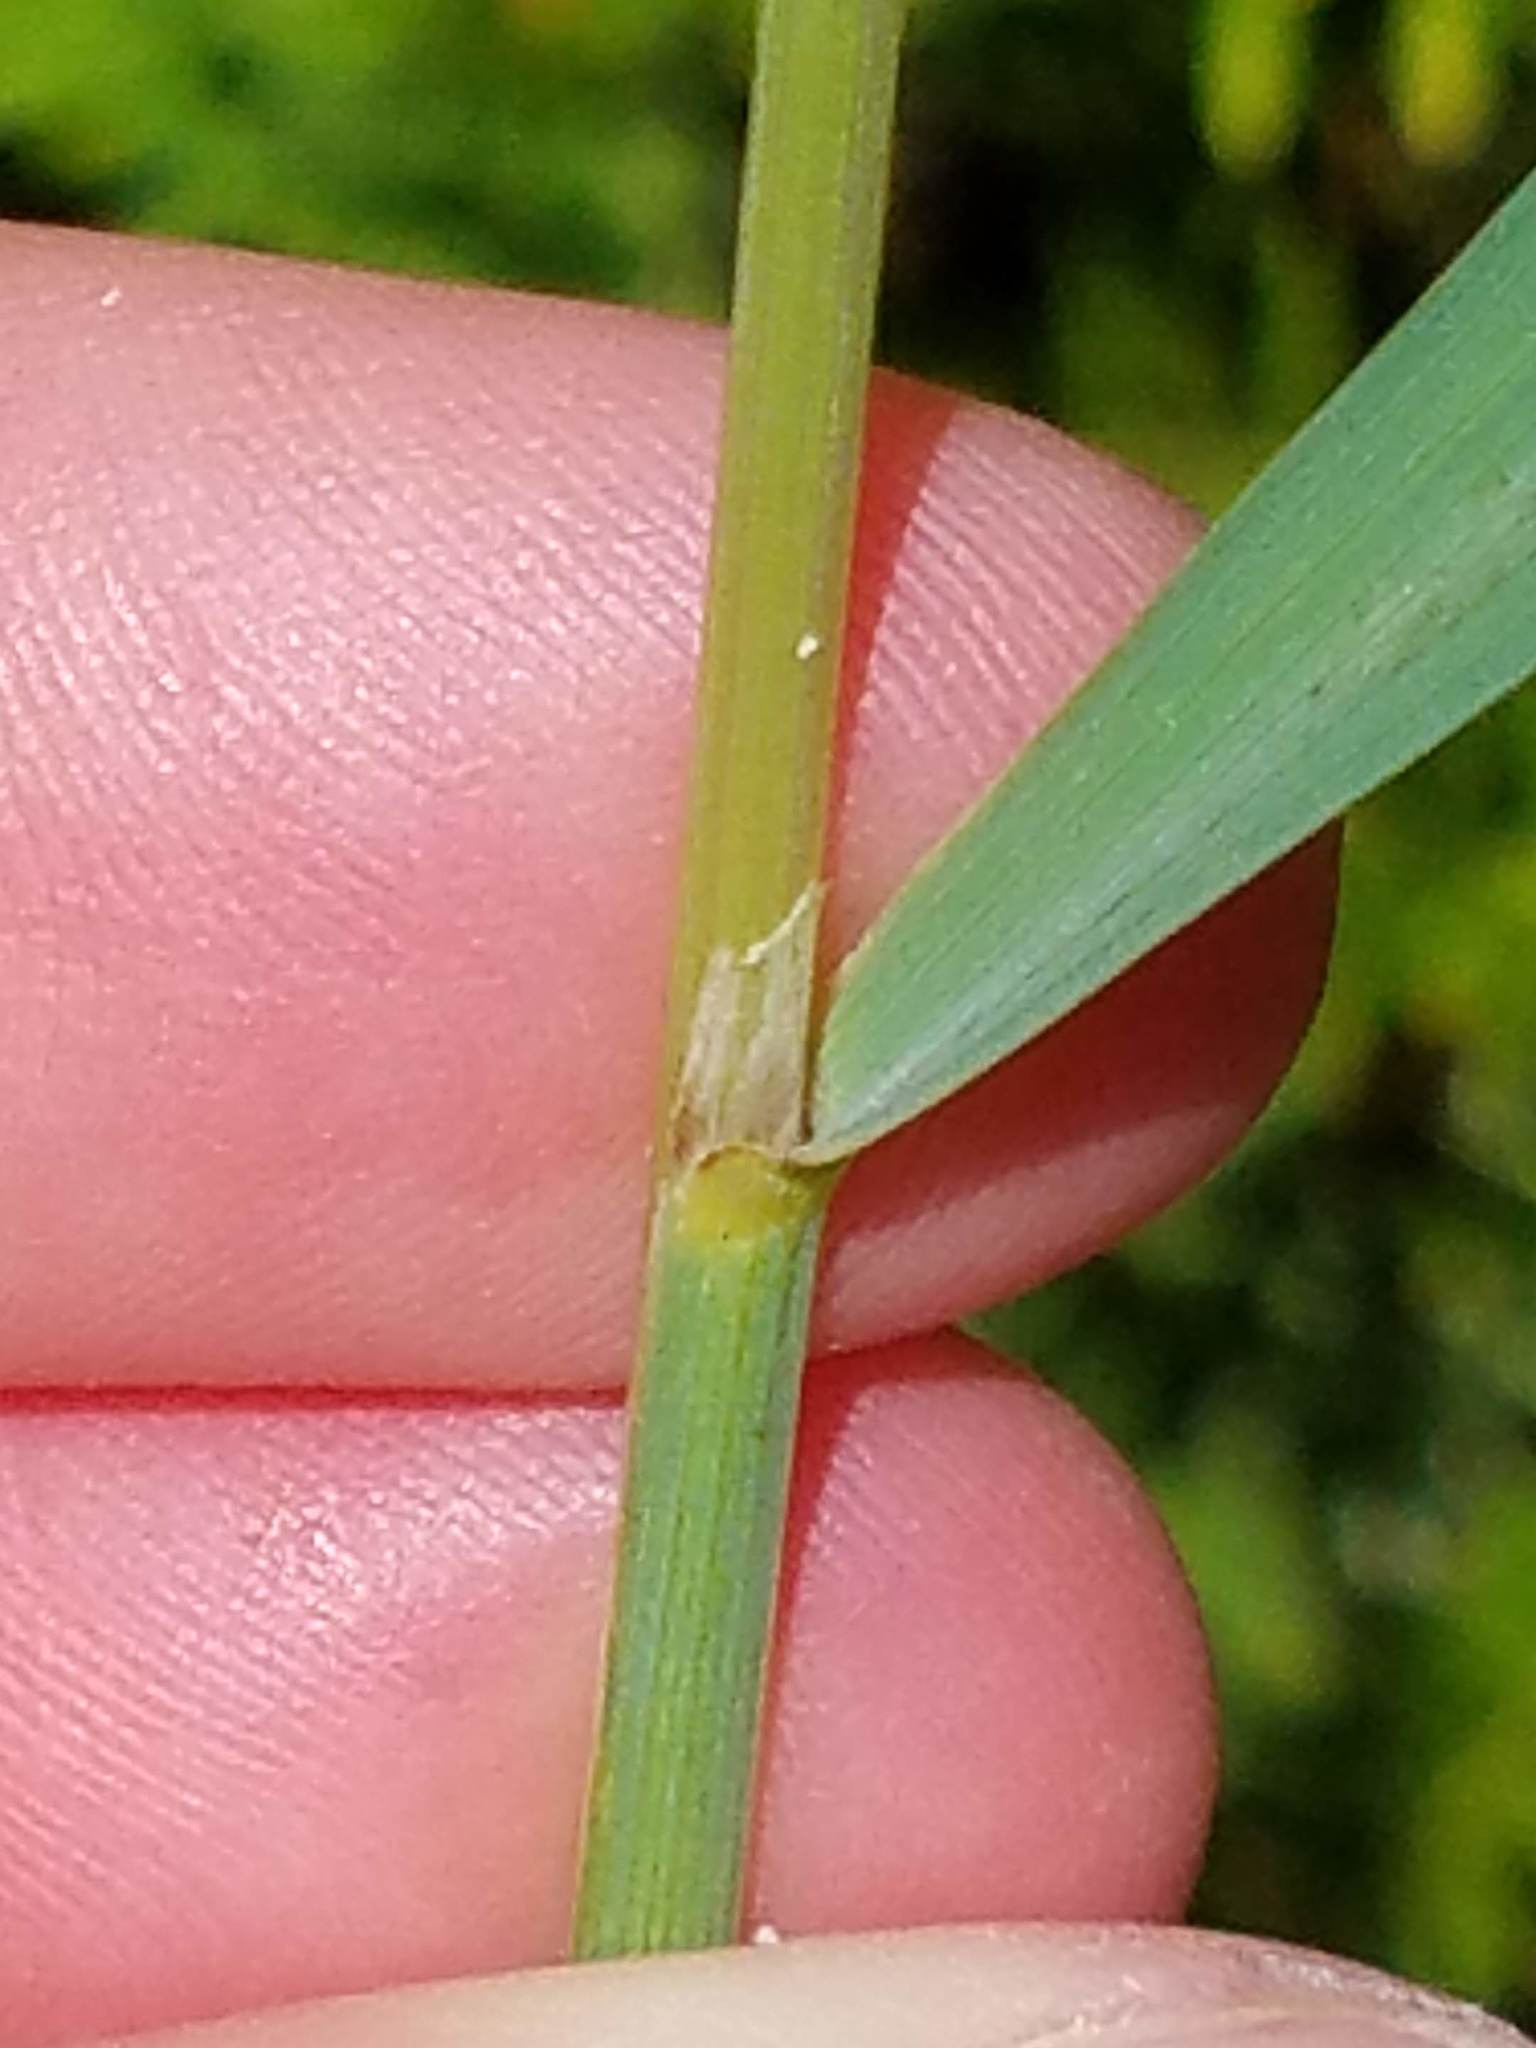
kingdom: Plantae
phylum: Tracheophyta
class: Liliopsida
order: Poales
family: Poaceae
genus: Calamagrostis
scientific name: Calamagrostis canadensis
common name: Canada bluejoint
